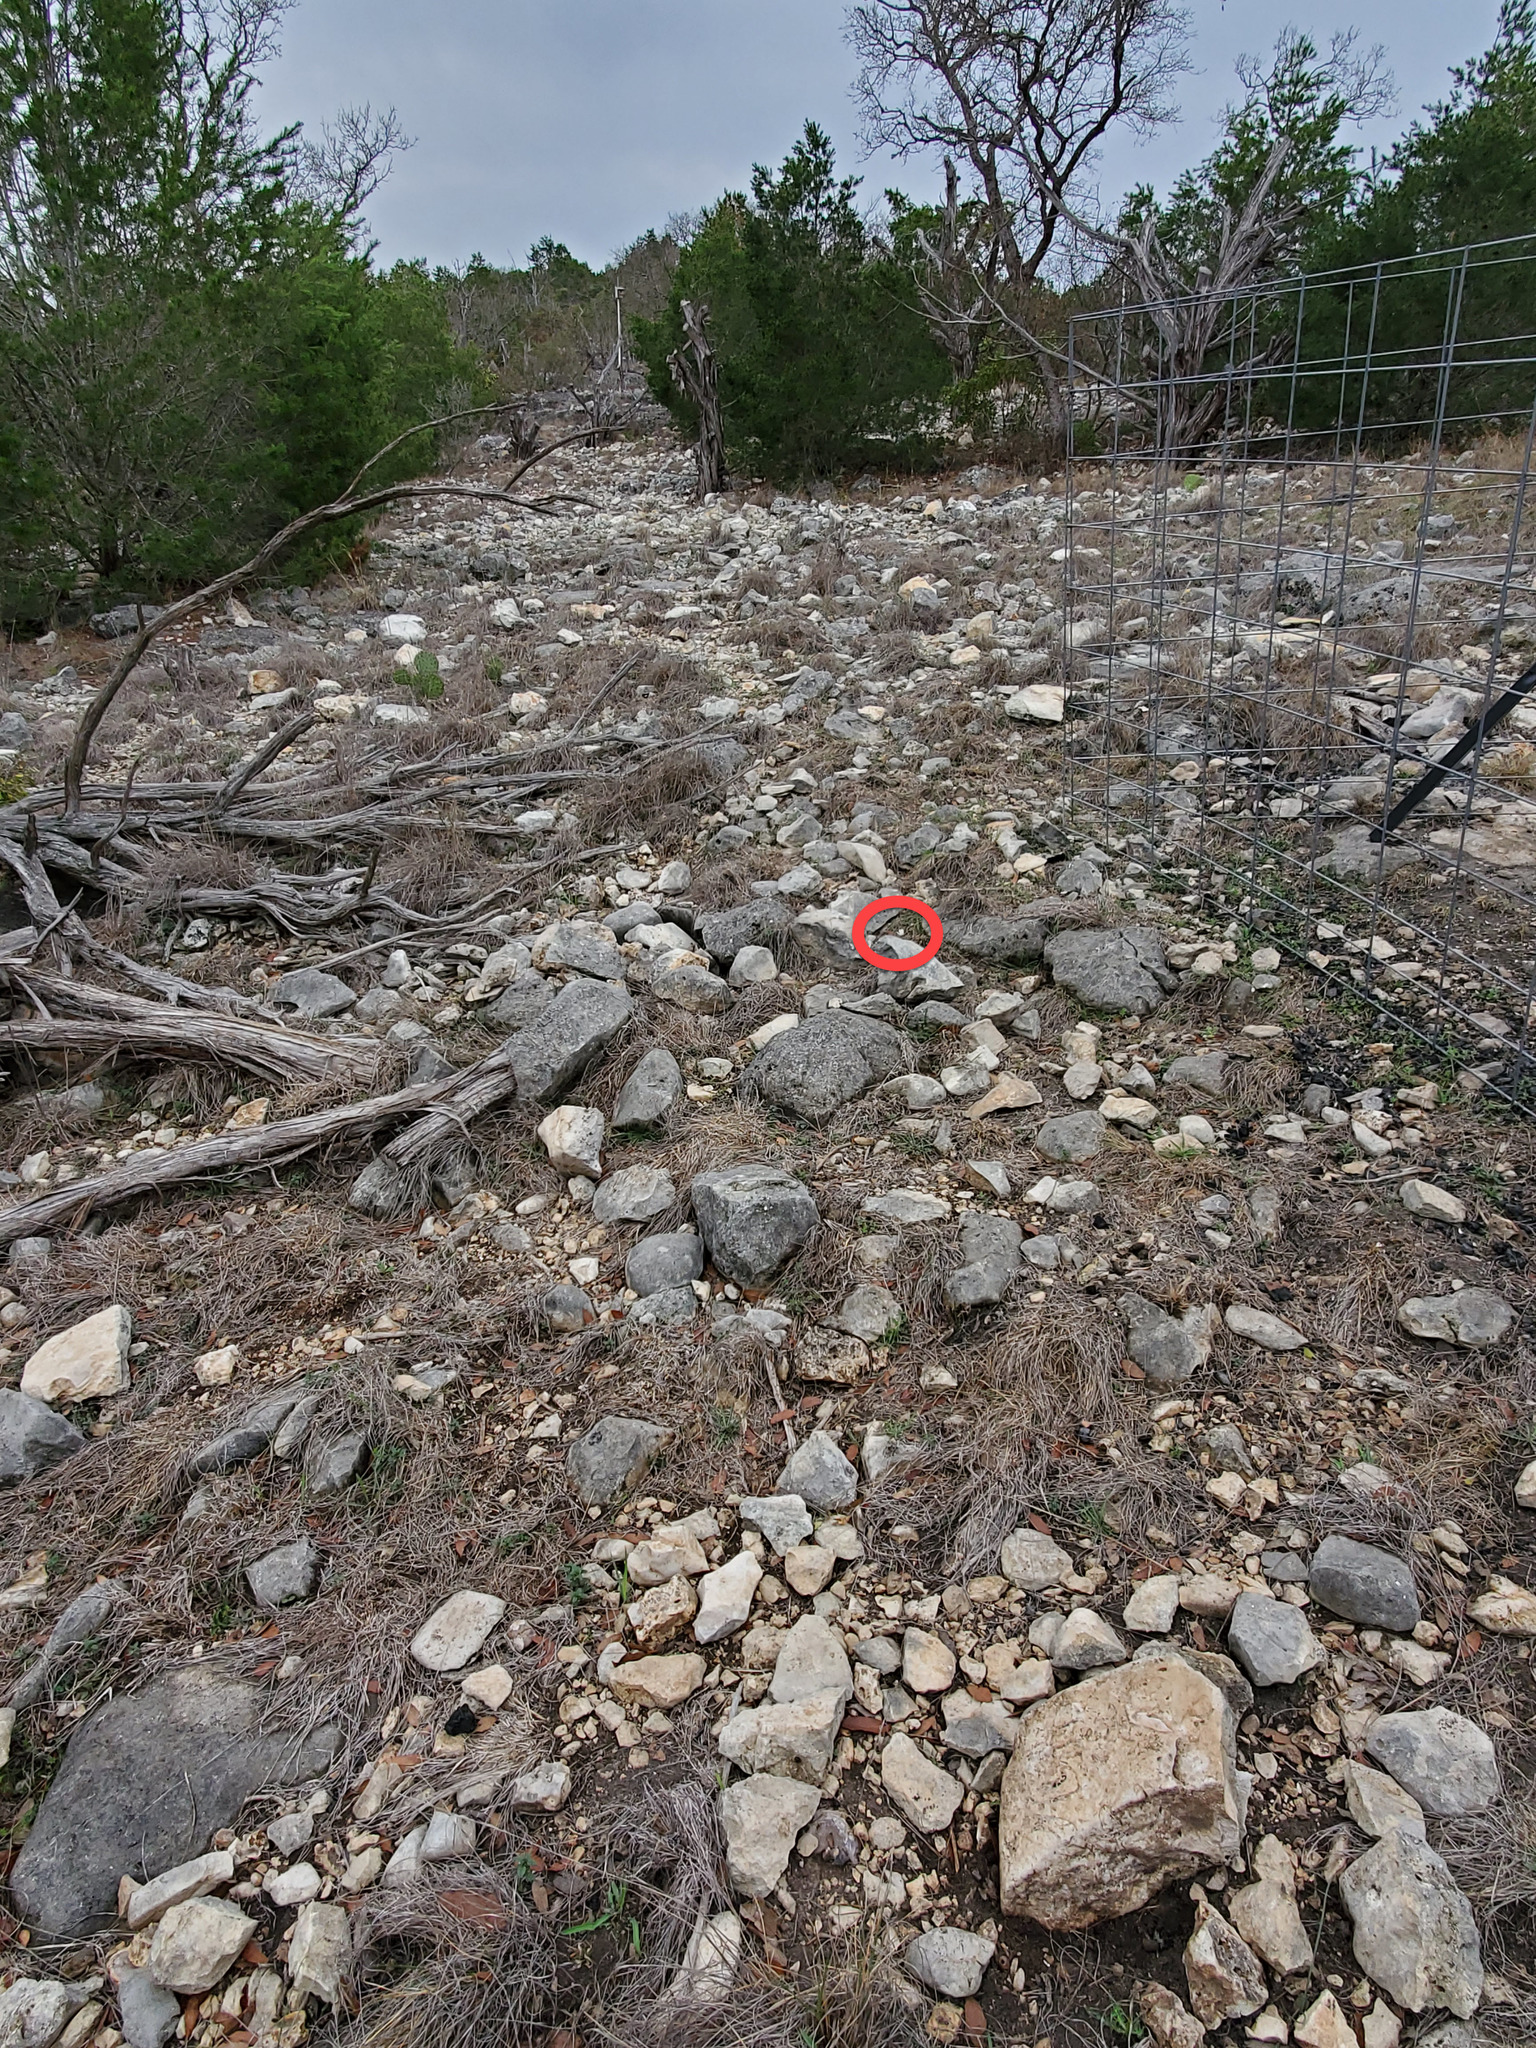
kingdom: Plantae
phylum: Tracheophyta
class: Magnoliopsida
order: Ranunculales
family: Ranunculaceae
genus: Anemone
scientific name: Anemone edwardsiana
